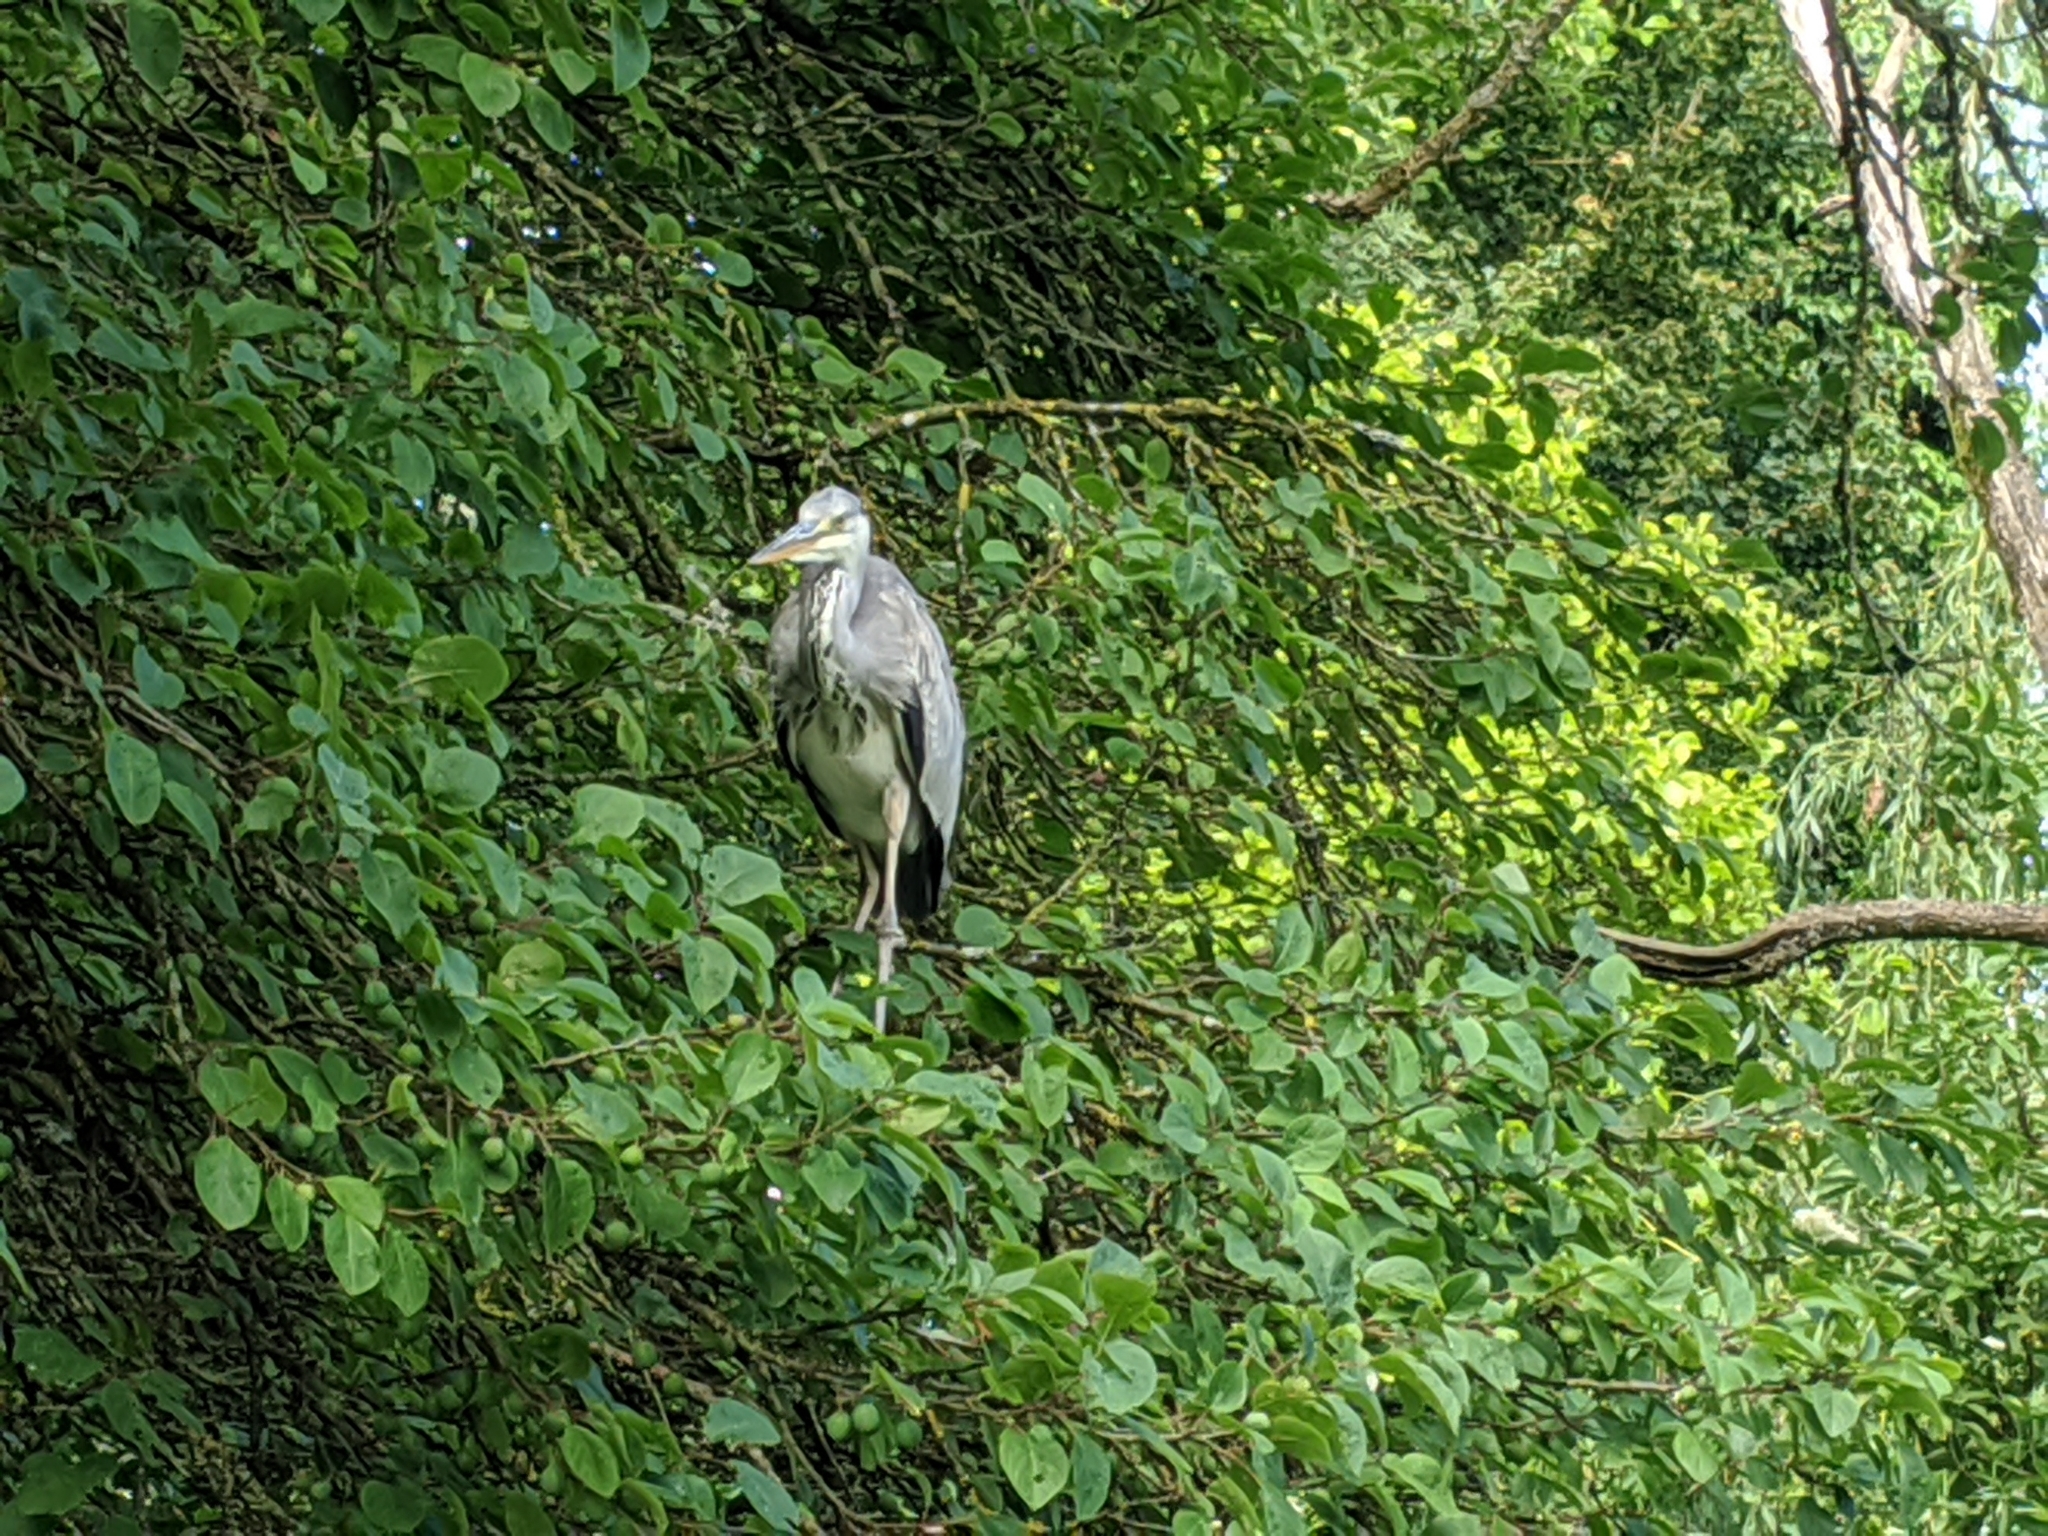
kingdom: Animalia
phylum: Chordata
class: Aves
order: Pelecaniformes
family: Ardeidae
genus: Ardea
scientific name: Ardea cinerea
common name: Grey heron
